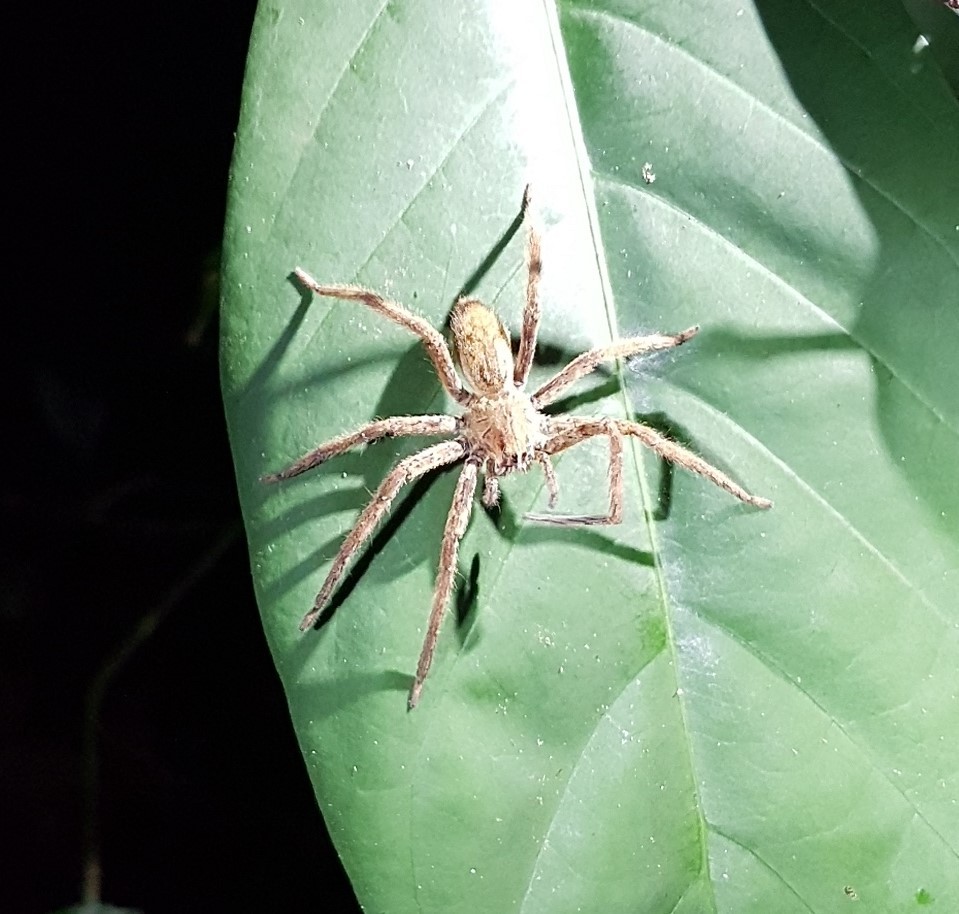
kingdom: Animalia
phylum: Arthropoda
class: Arachnida
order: Araneae
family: Trechaleidae
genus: Cupiennius
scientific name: Cupiennius coccineus
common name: Wandering spiders
